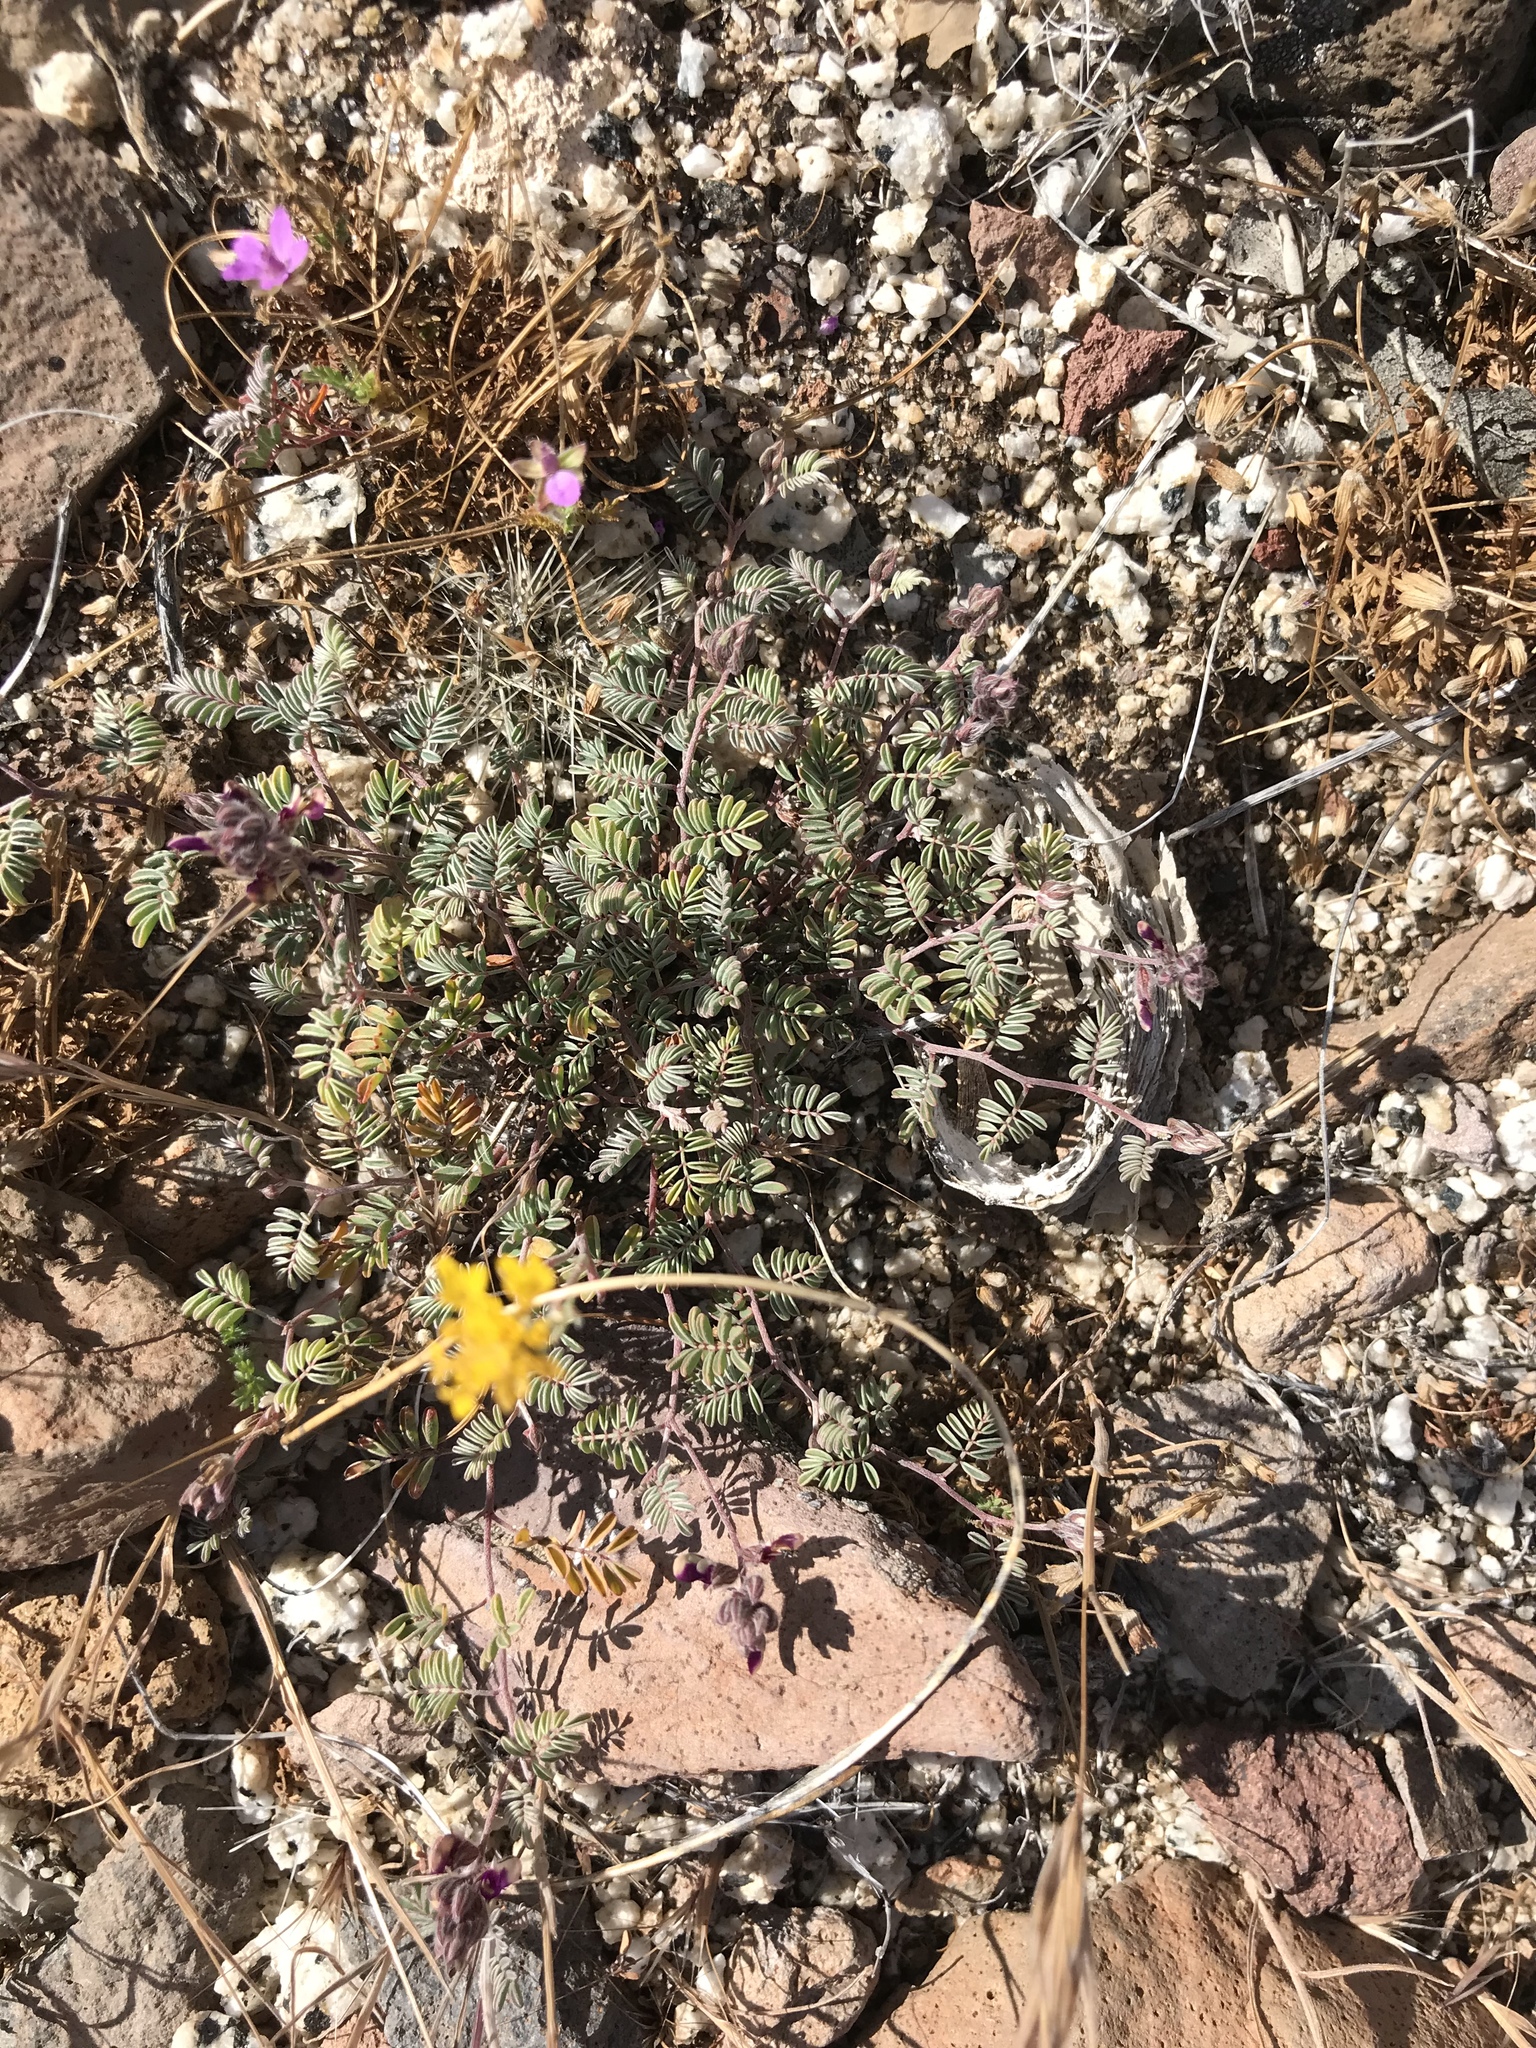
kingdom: Plantae
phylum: Tracheophyta
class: Magnoliopsida
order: Fabales
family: Fabaceae
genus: Marina
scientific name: Marina orcuttii
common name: Sonoran desert marina
